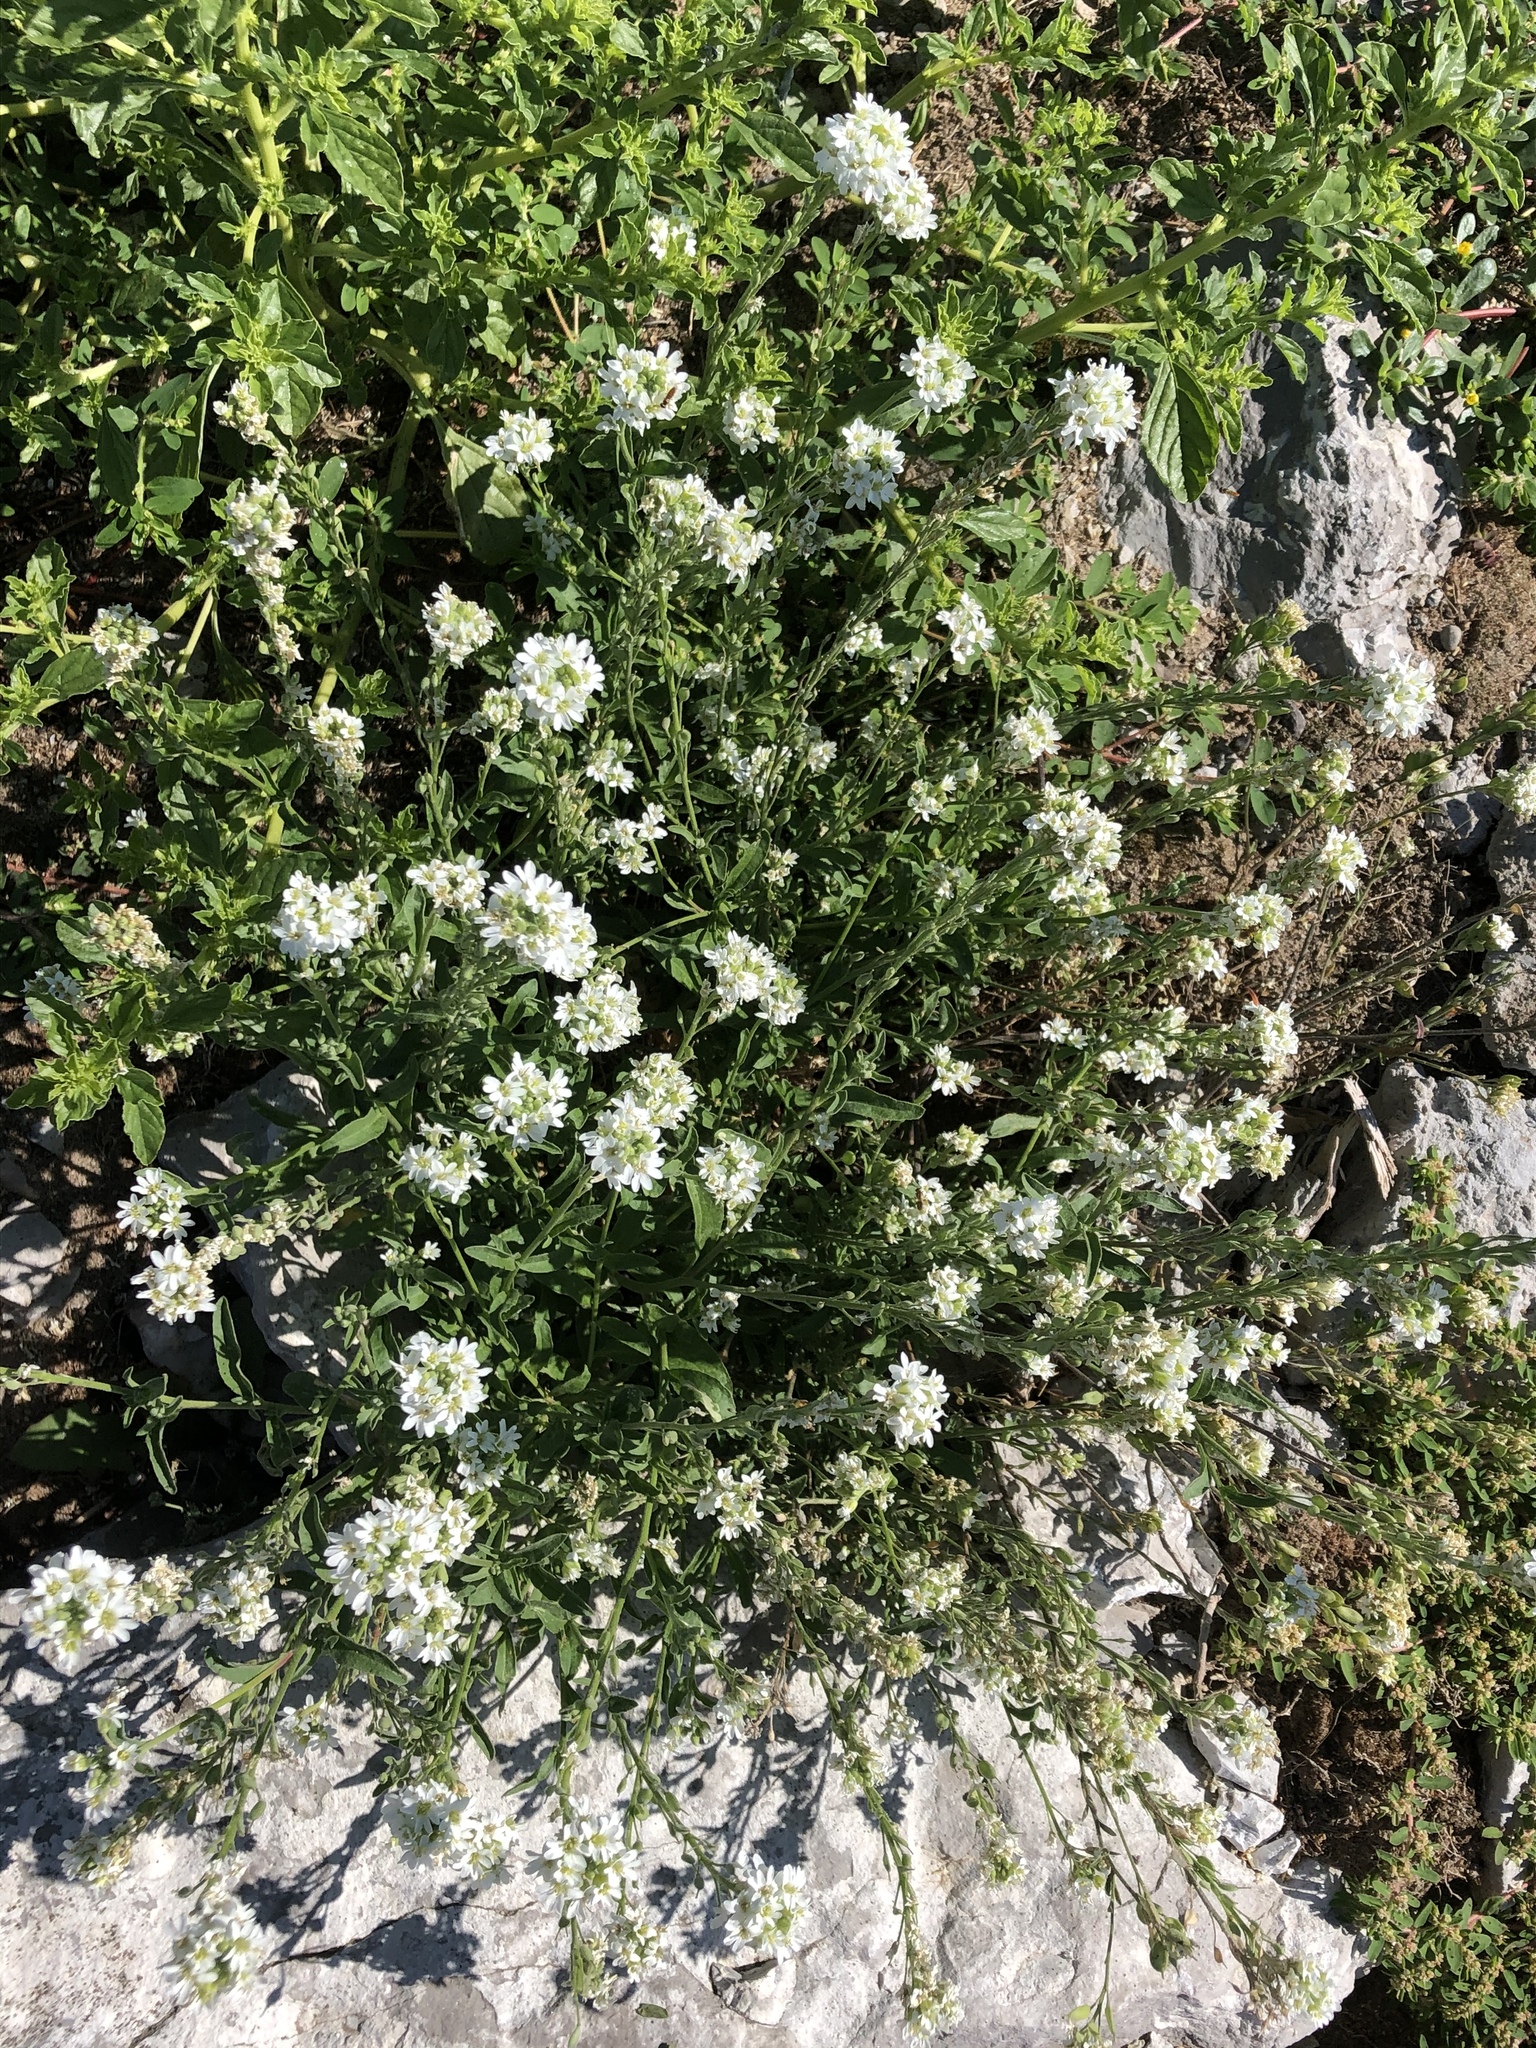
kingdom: Plantae
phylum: Tracheophyta
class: Magnoliopsida
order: Brassicales
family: Brassicaceae
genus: Berteroa
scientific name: Berteroa incana
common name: Hoary alison
